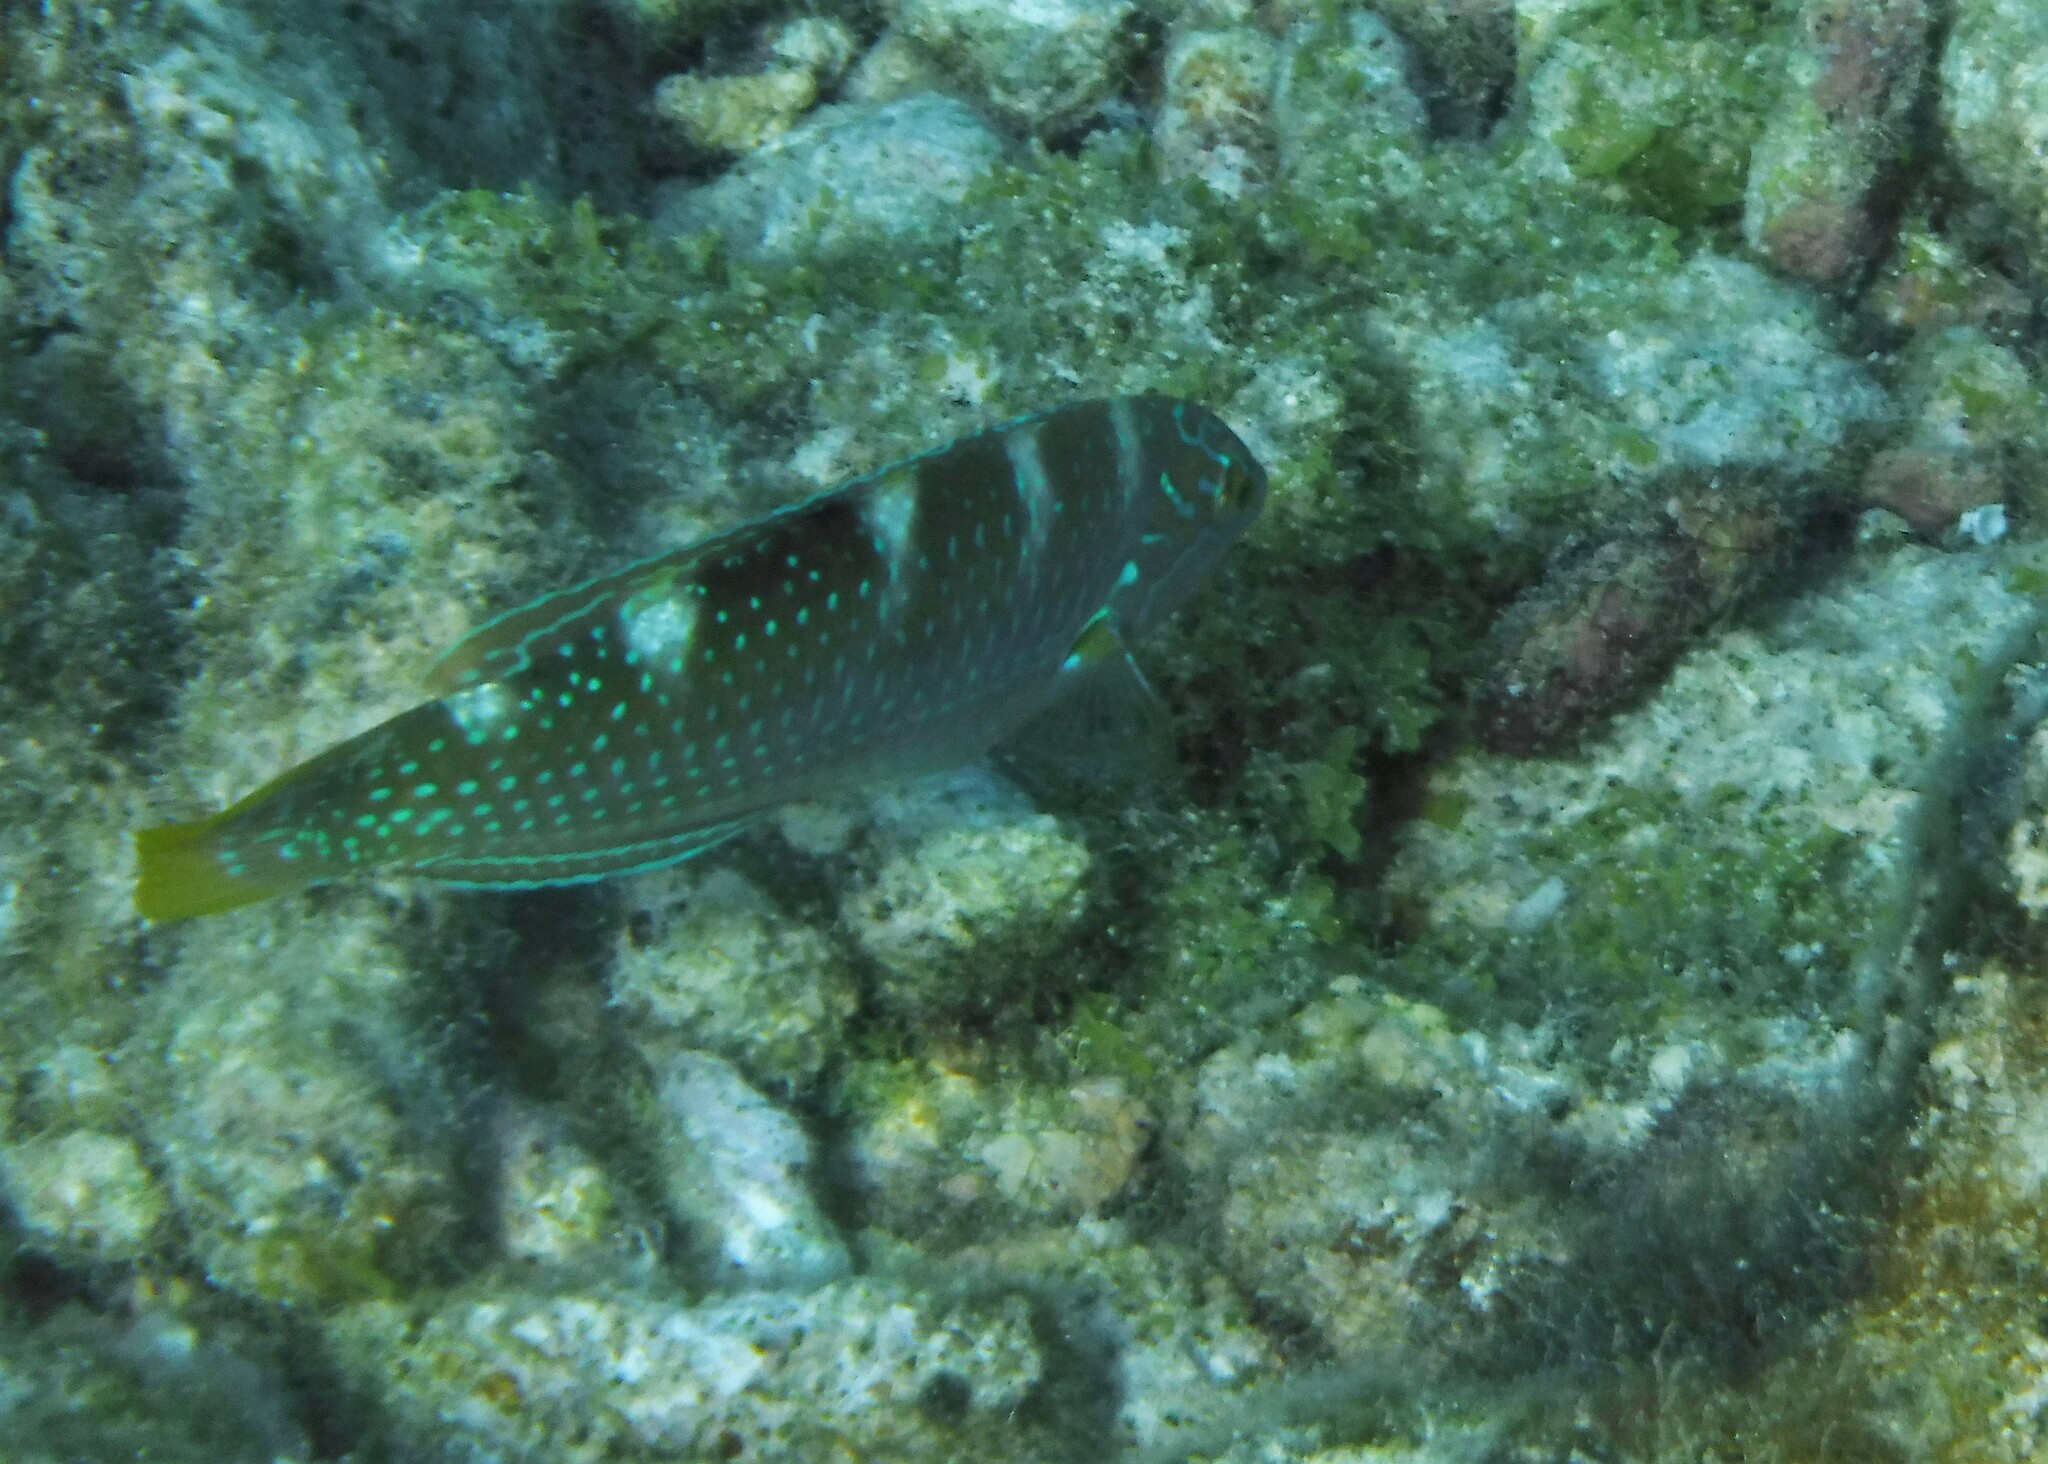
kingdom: Animalia
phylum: Chordata
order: Perciformes
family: Labridae
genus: Halichoeres
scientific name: Halichoeres radiatus
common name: Puddingwife
